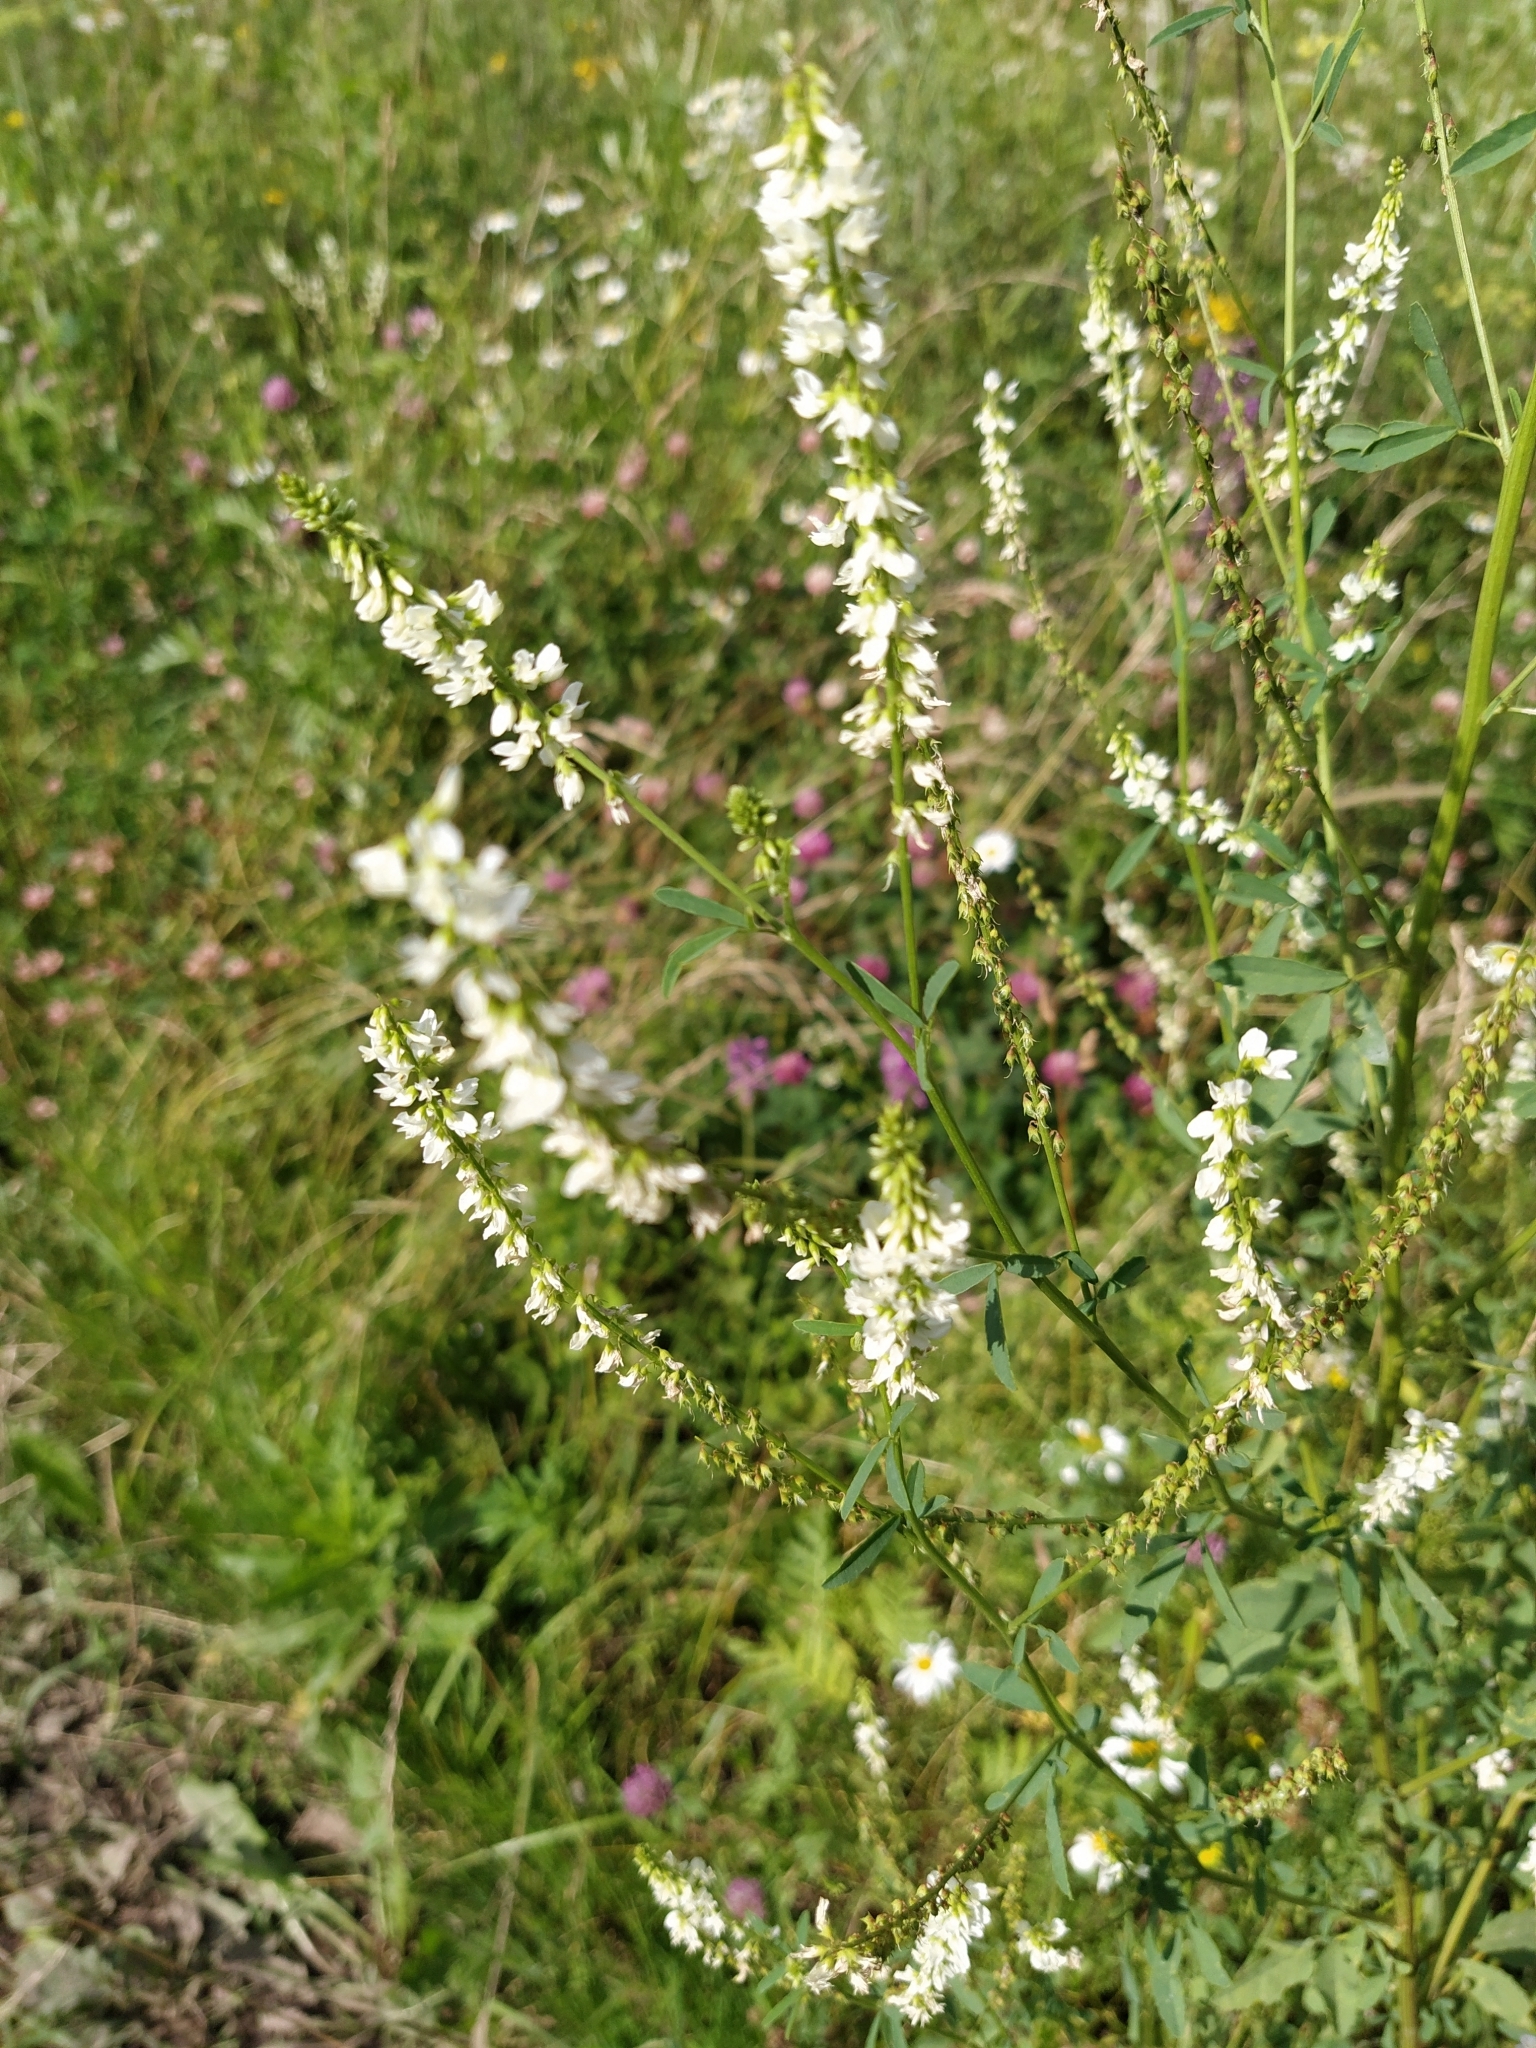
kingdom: Plantae
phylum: Tracheophyta
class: Magnoliopsida
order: Fabales
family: Fabaceae
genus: Melilotus
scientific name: Melilotus albus
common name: White melilot
